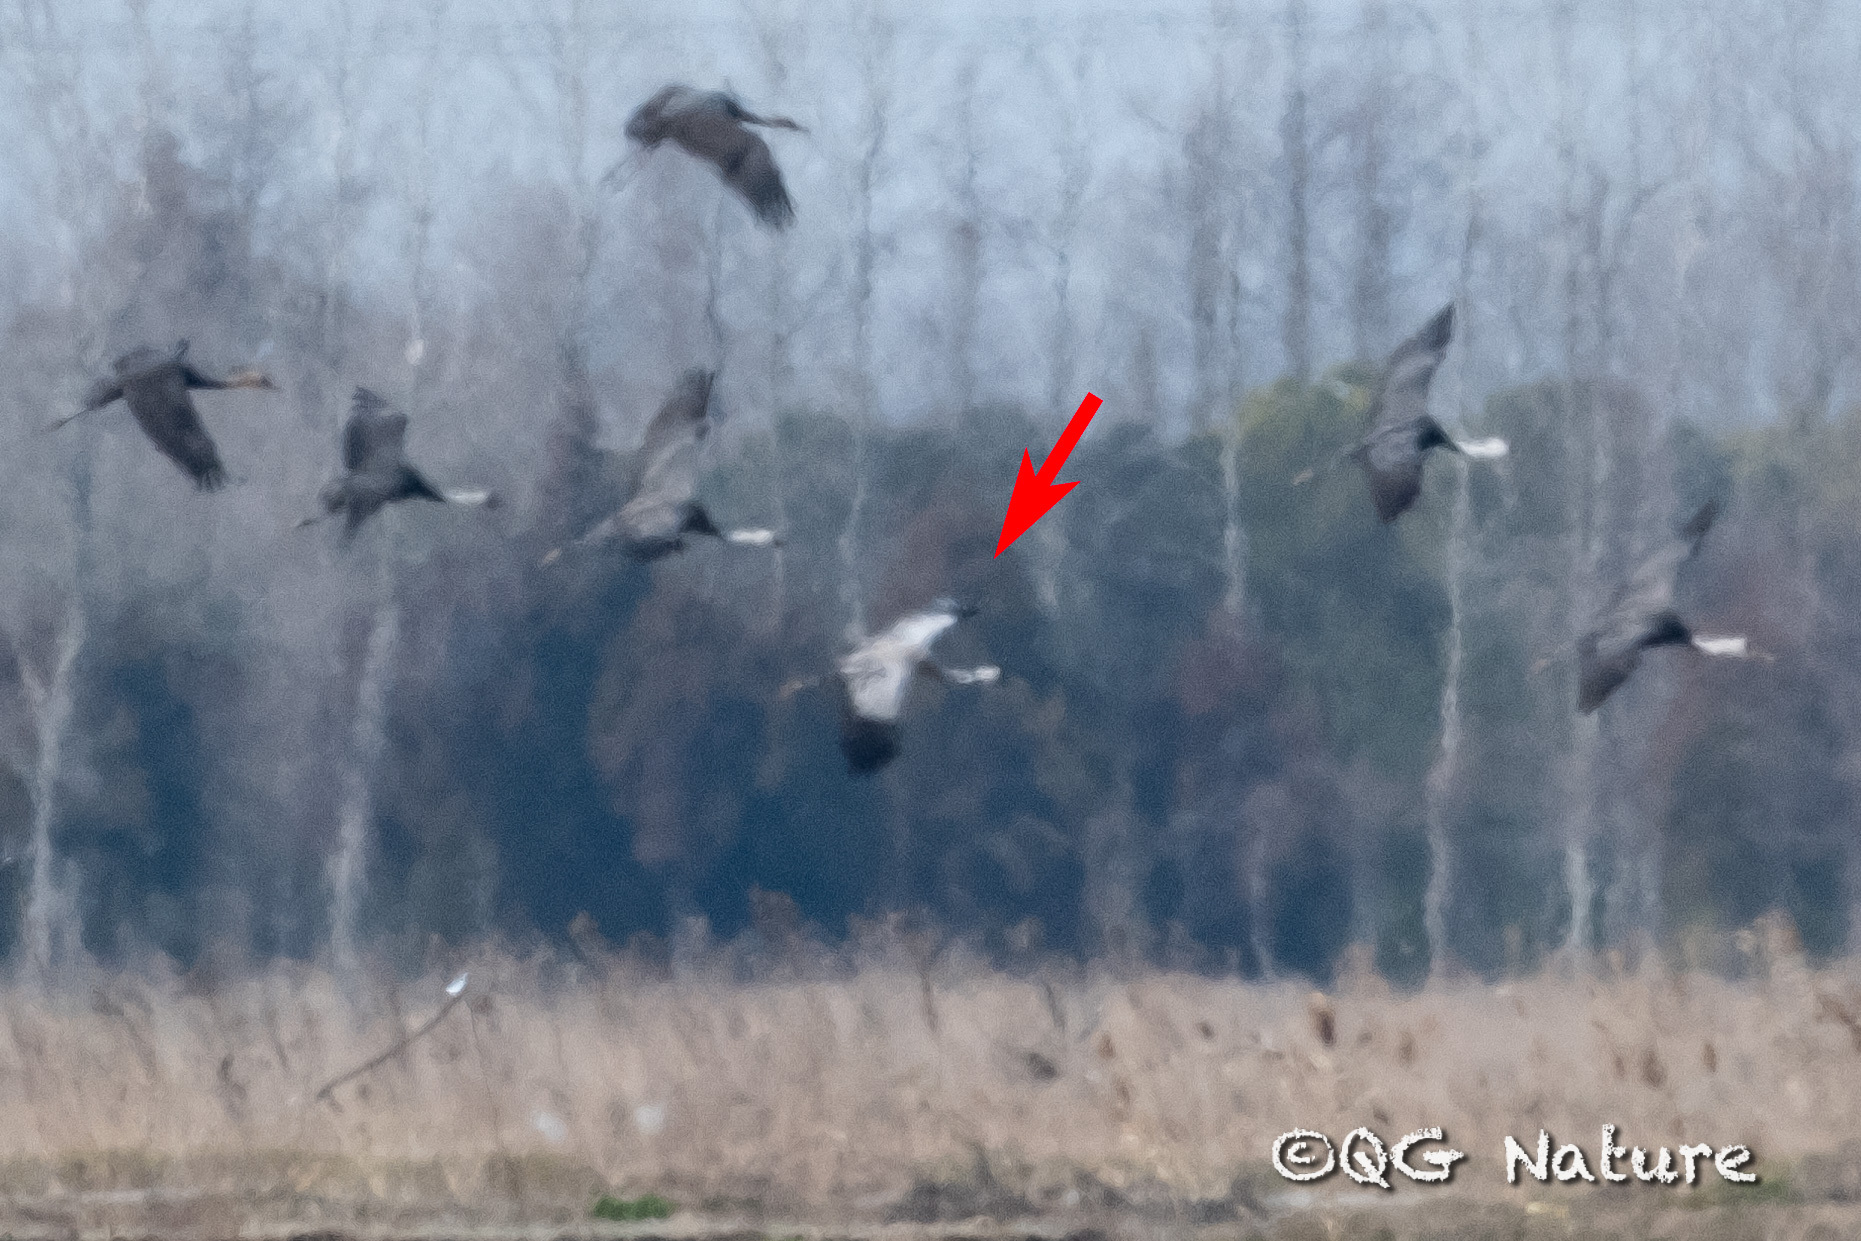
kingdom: Animalia
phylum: Chordata
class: Aves
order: Gruiformes
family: Gruidae
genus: Grus
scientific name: Grus
